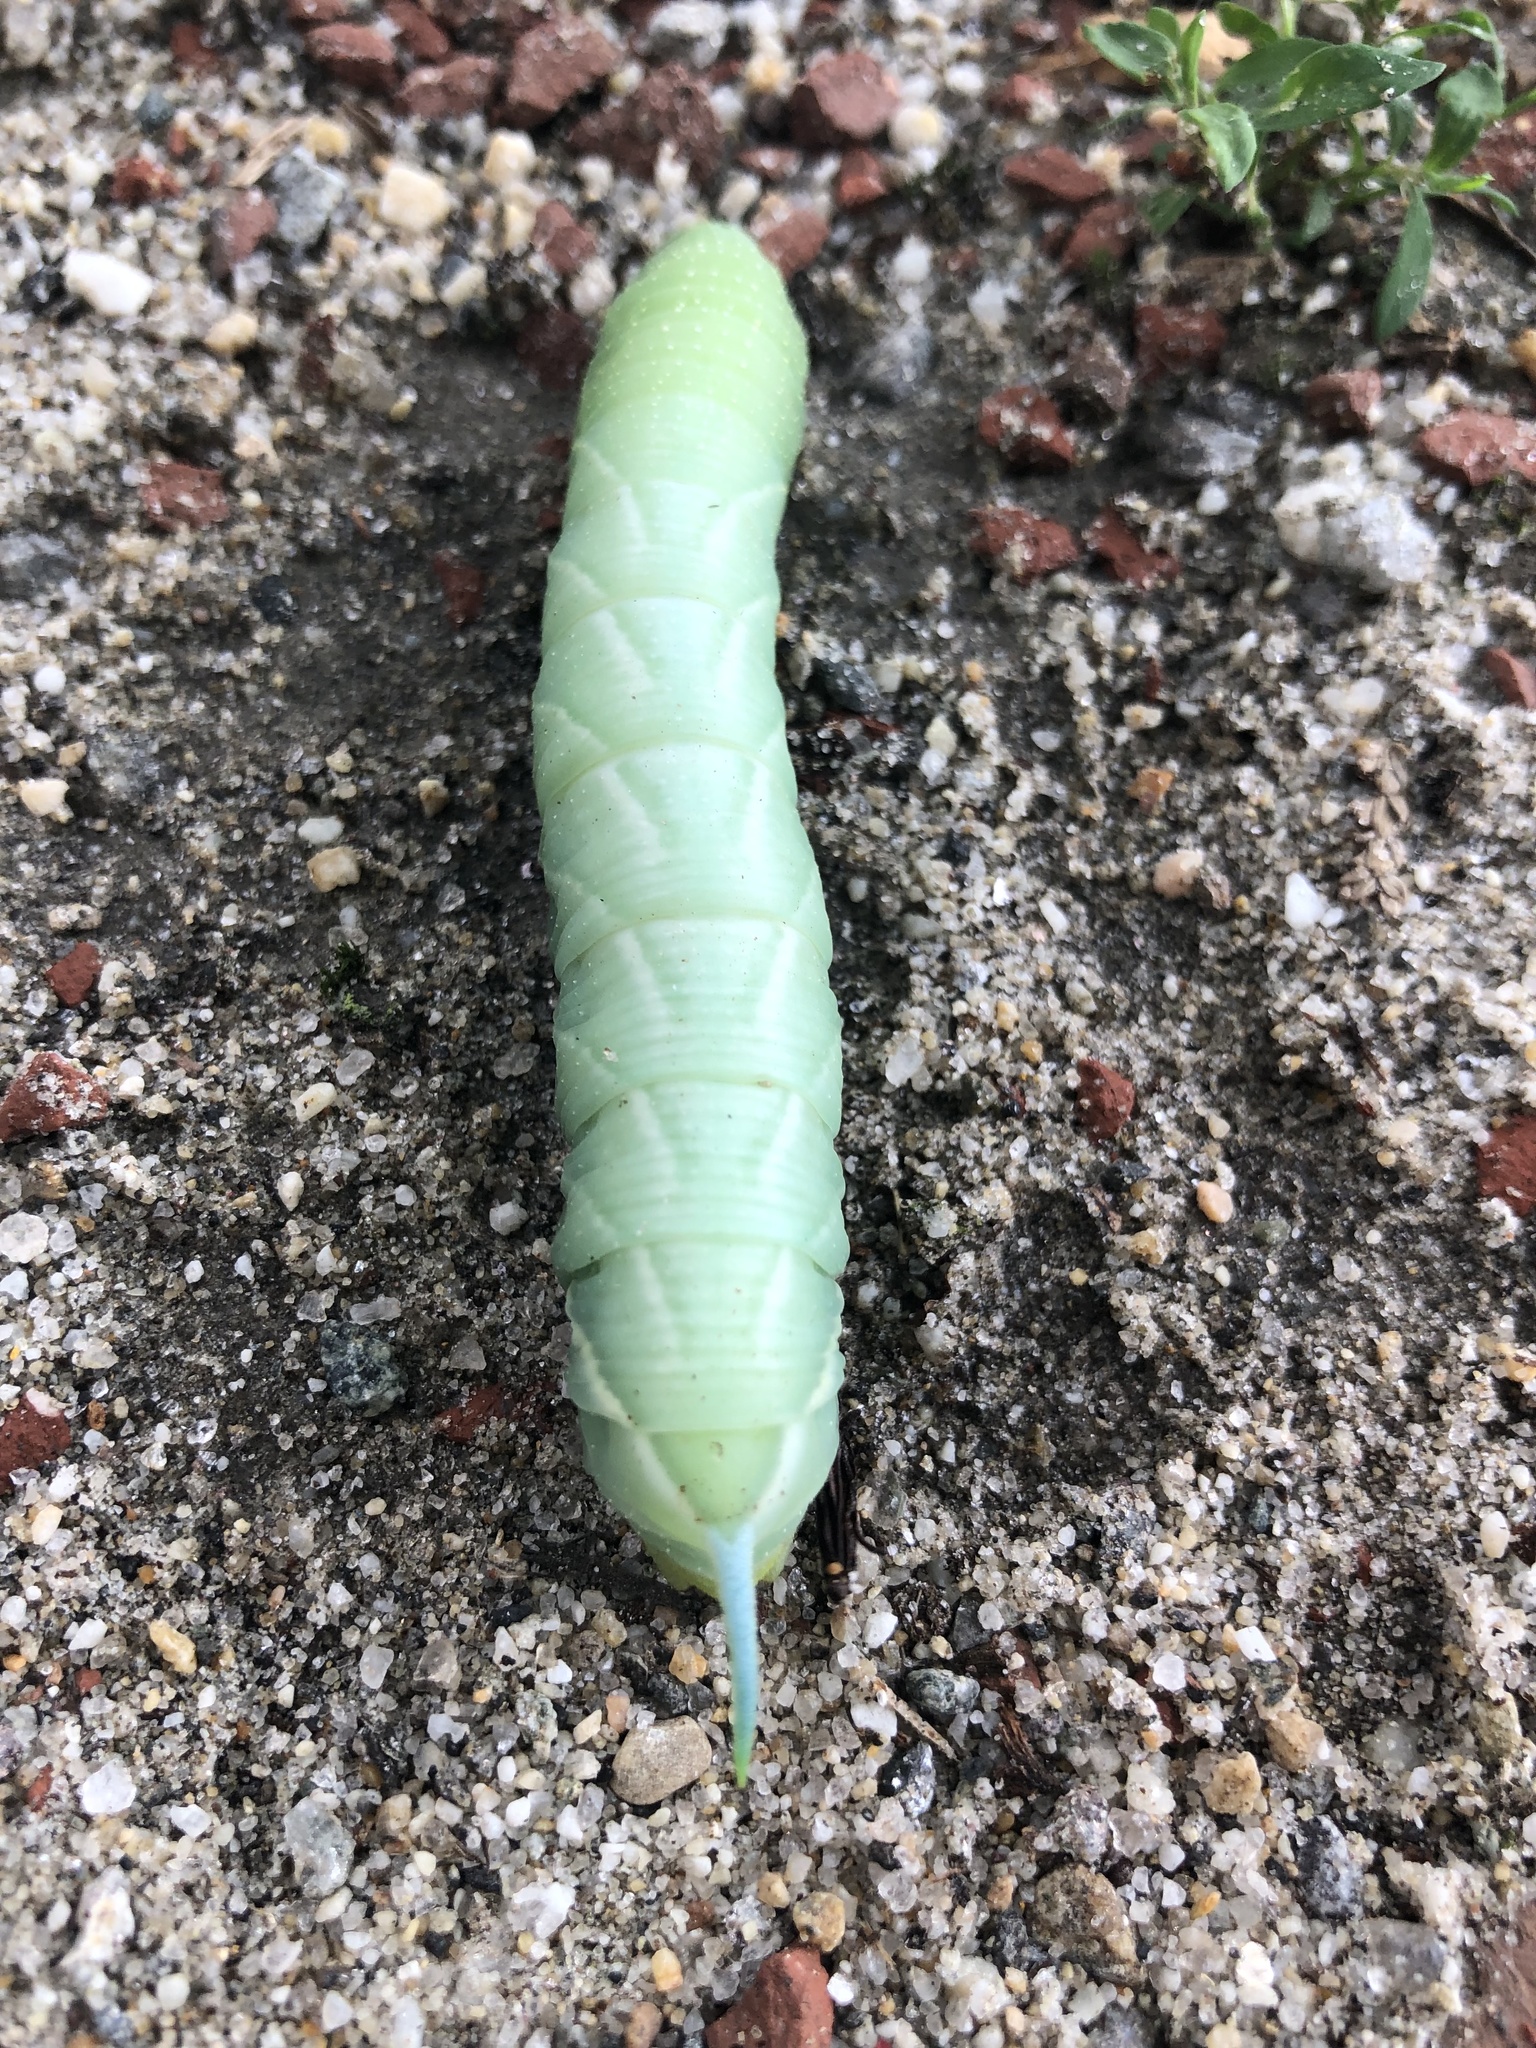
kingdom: Animalia
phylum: Arthropoda
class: Insecta
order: Lepidoptera
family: Sphingidae
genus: Sphinx
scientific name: Sphinx chersis
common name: Great ash sphinx
